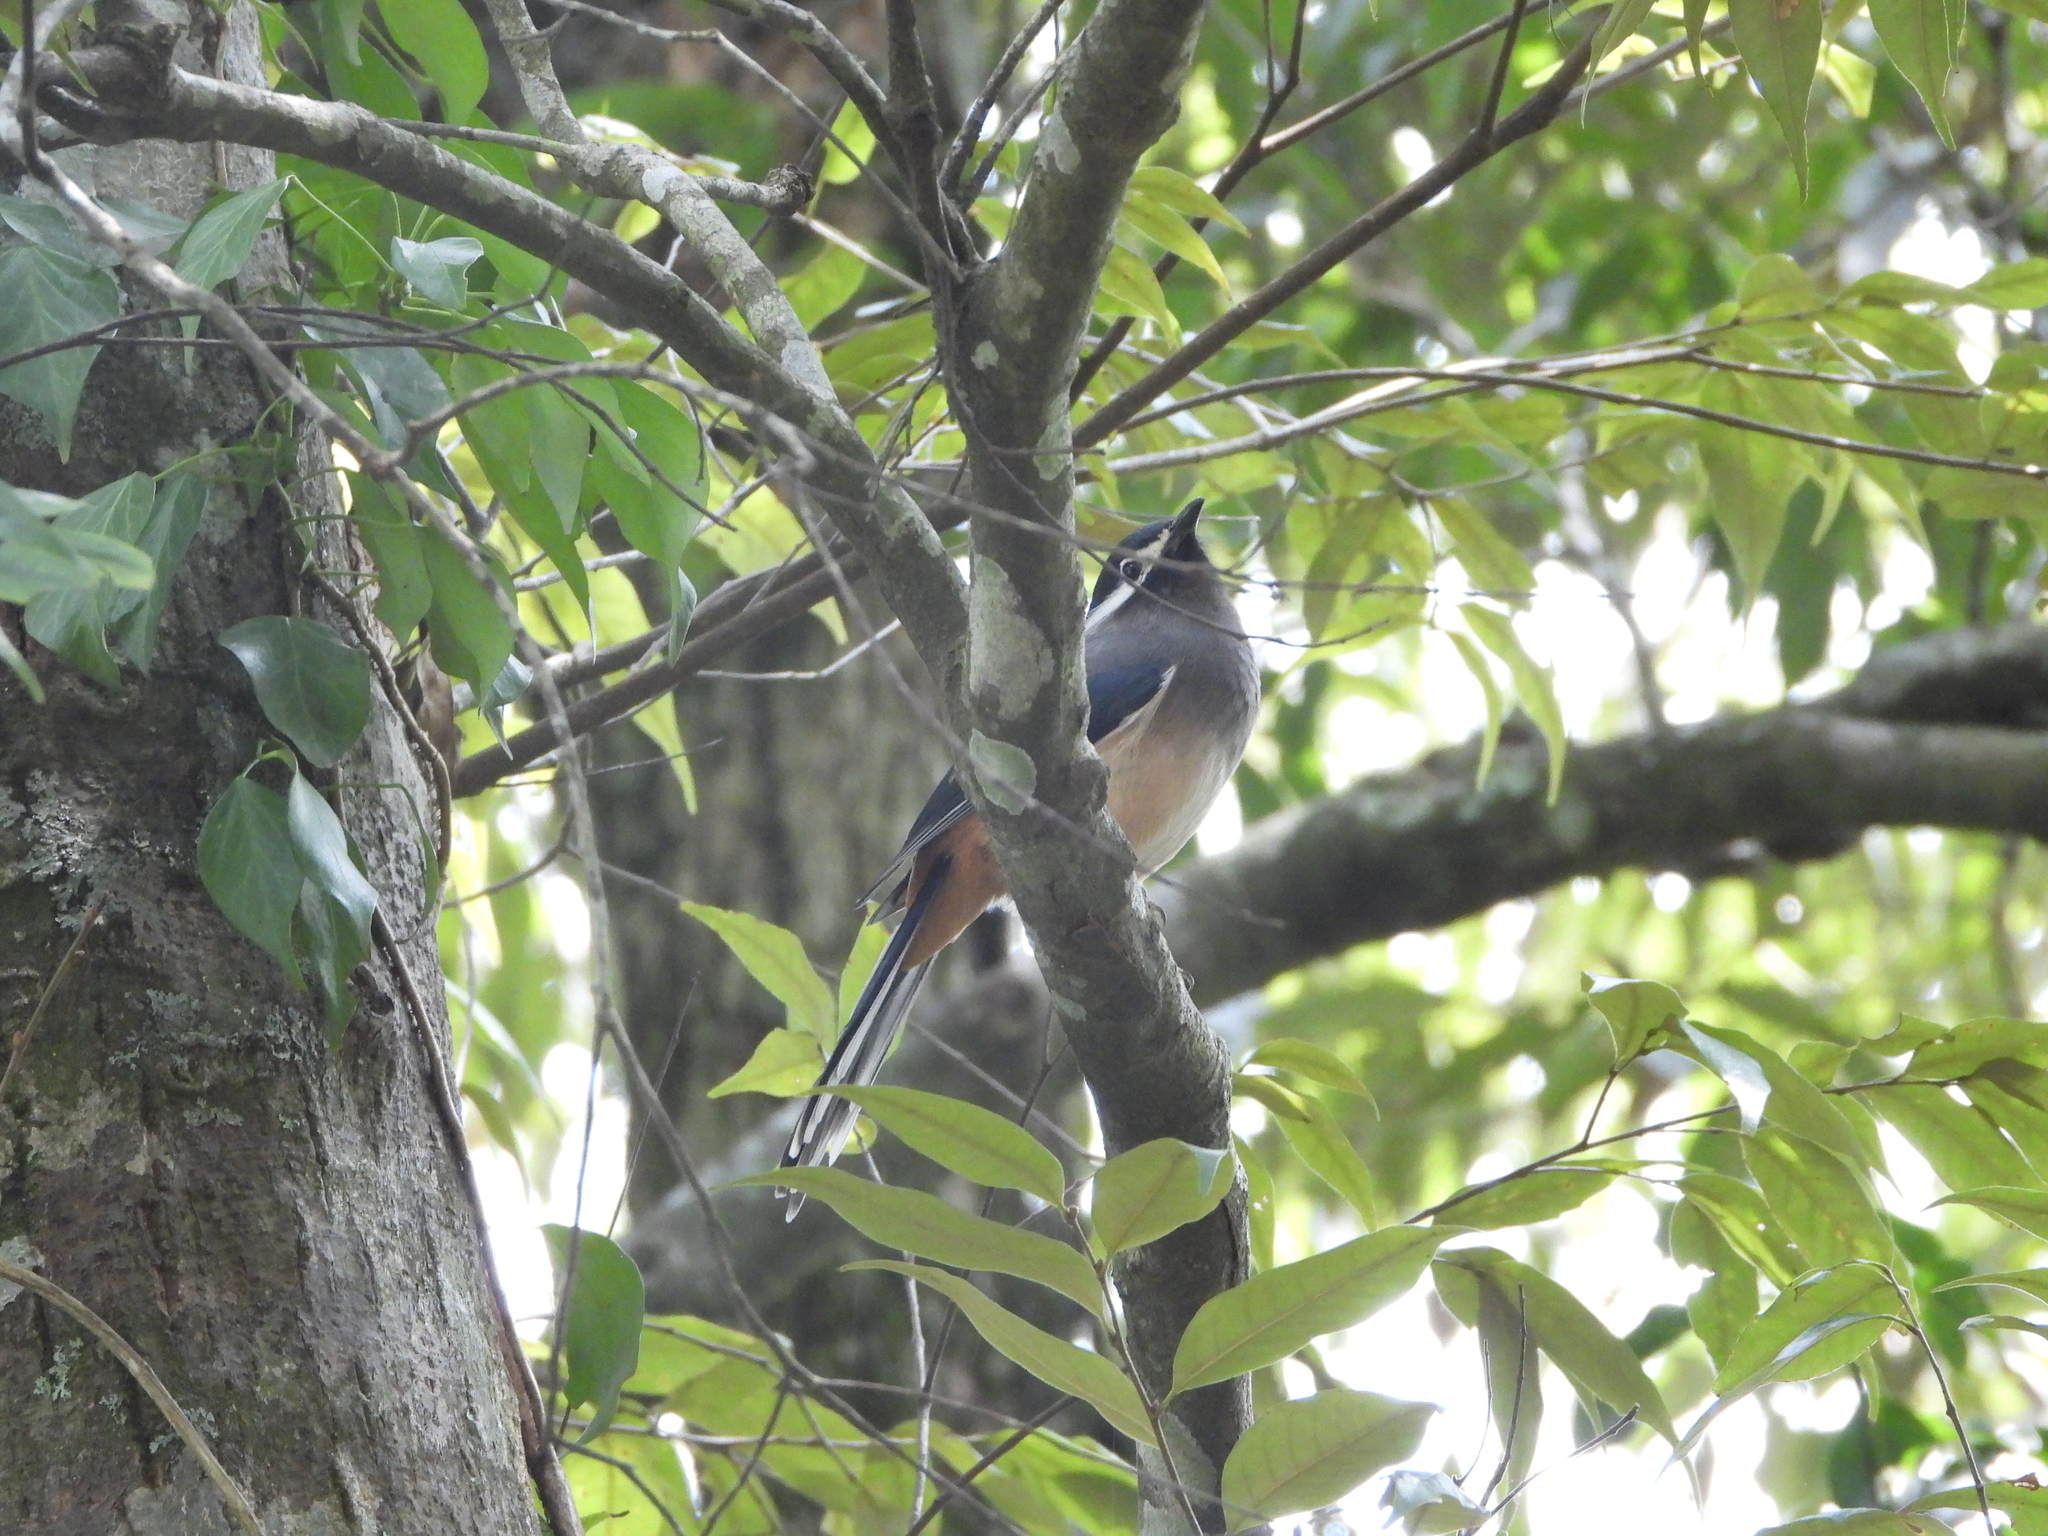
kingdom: Animalia
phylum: Chordata
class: Aves
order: Passeriformes
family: Leiothrichidae
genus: Heterophasia
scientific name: Heterophasia auricularis
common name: White-eared sibia
